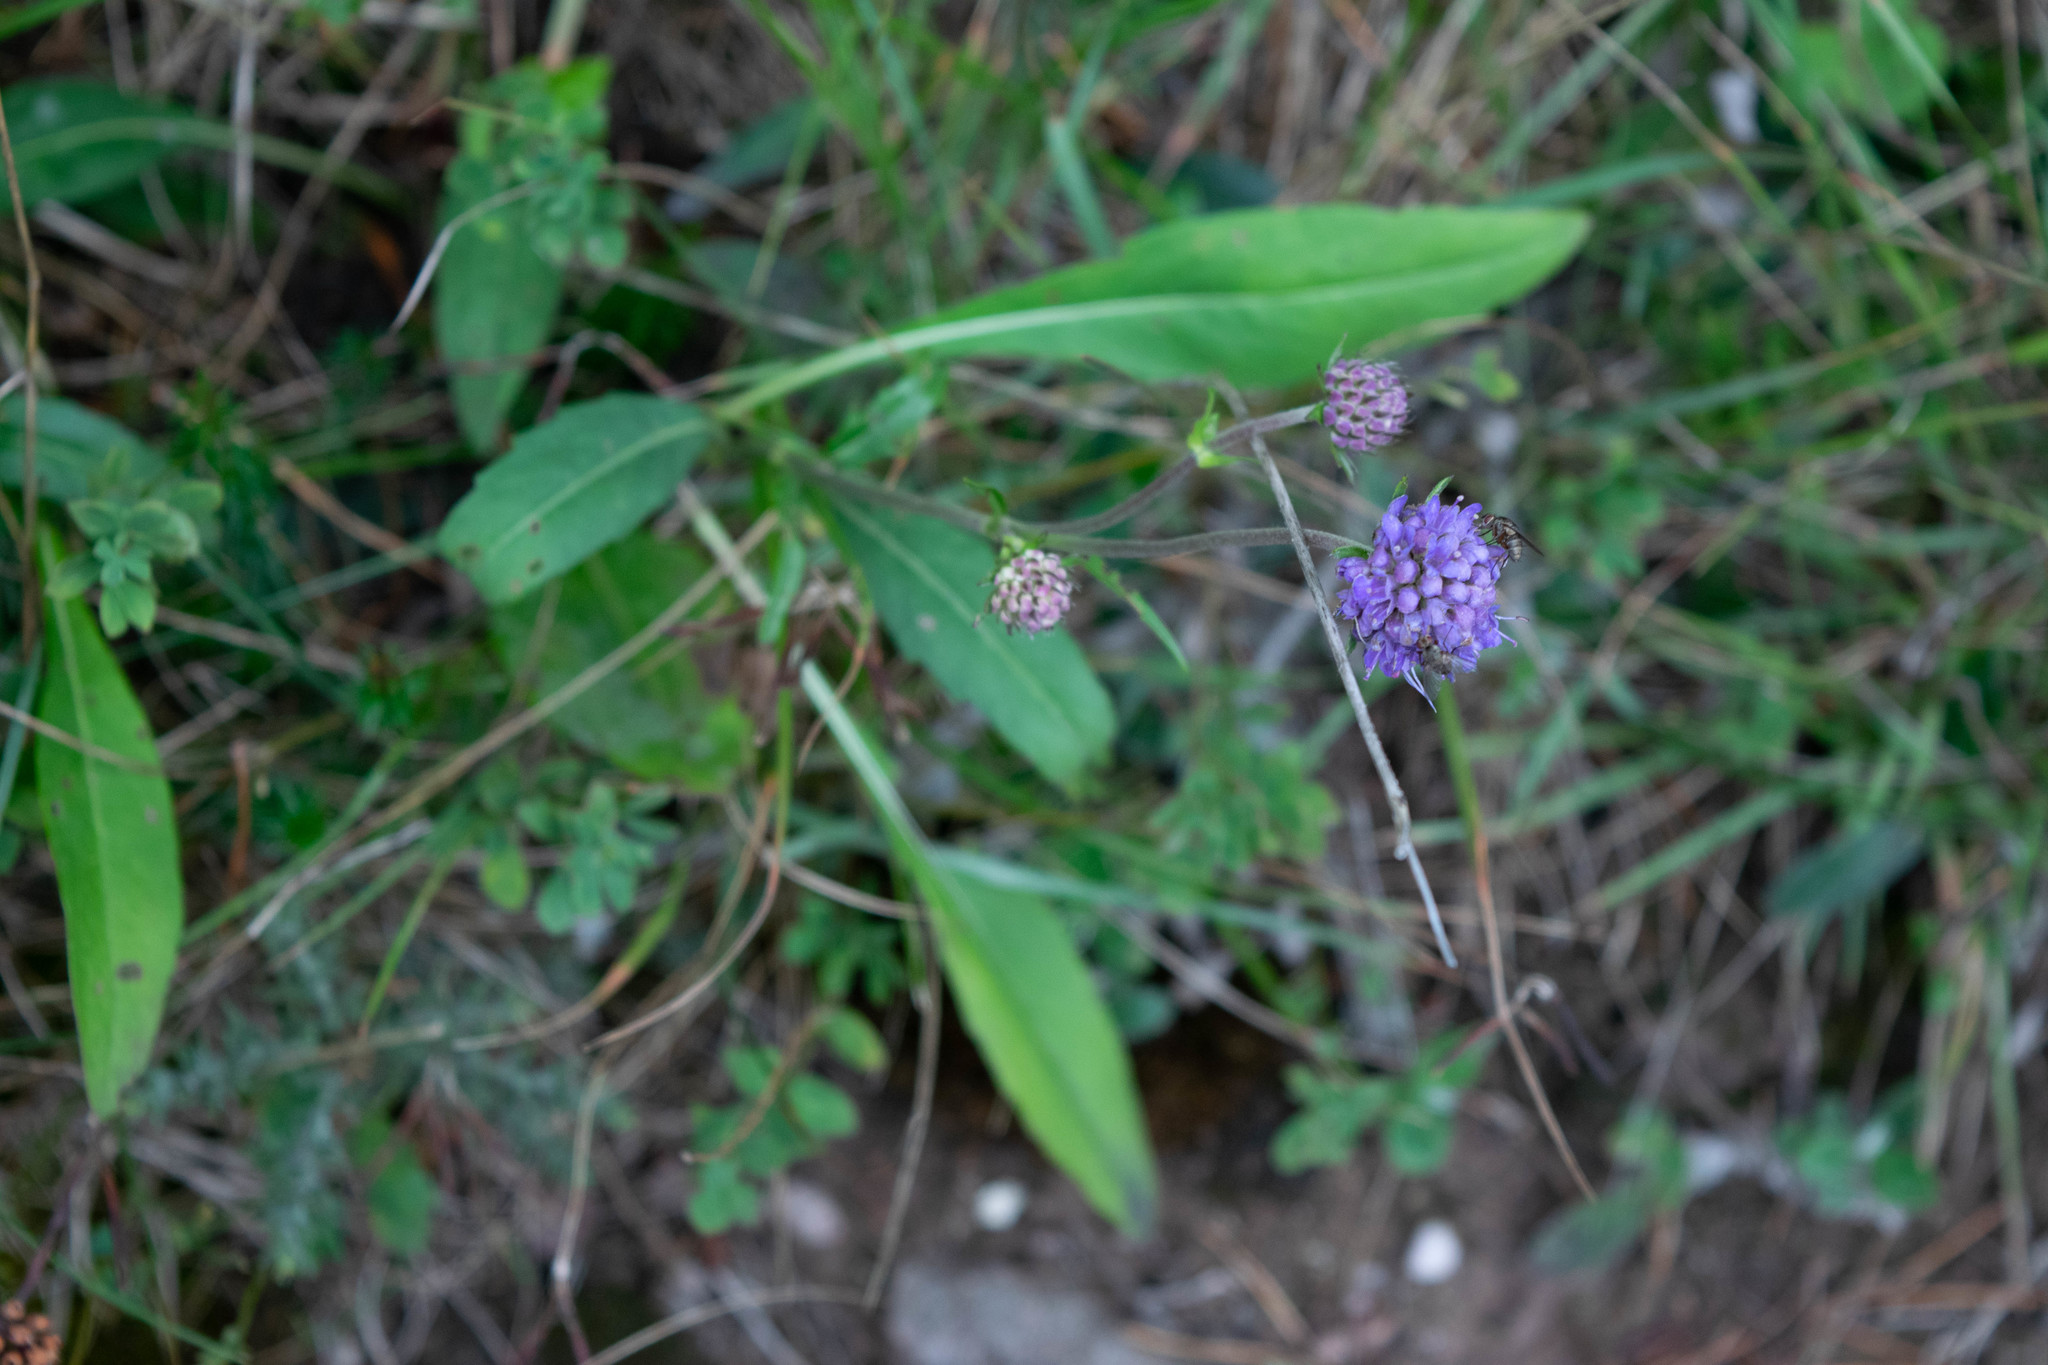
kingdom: Plantae
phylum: Tracheophyta
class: Magnoliopsida
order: Dipsacales
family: Caprifoliaceae
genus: Succisa
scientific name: Succisa pratensis
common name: Devil's-bit
